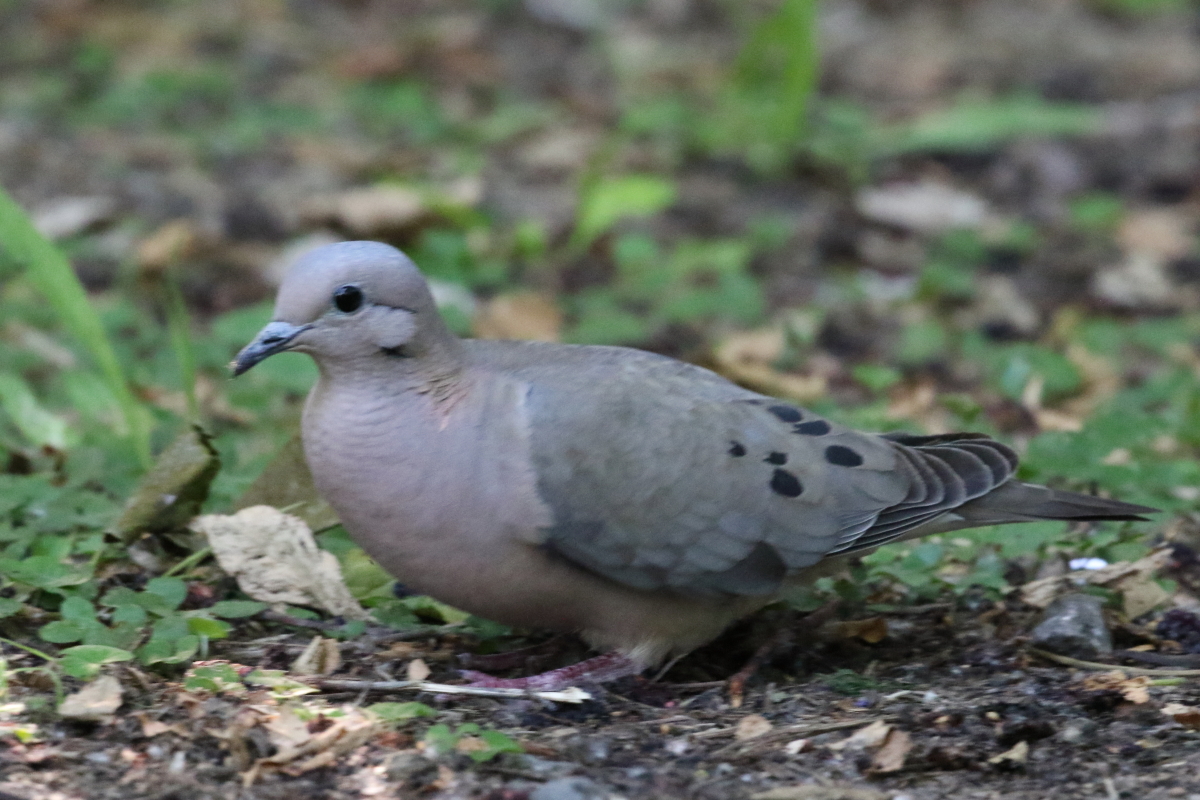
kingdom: Animalia
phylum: Chordata
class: Aves
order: Columbiformes
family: Columbidae
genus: Zenaida
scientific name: Zenaida auriculata
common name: Eared dove
